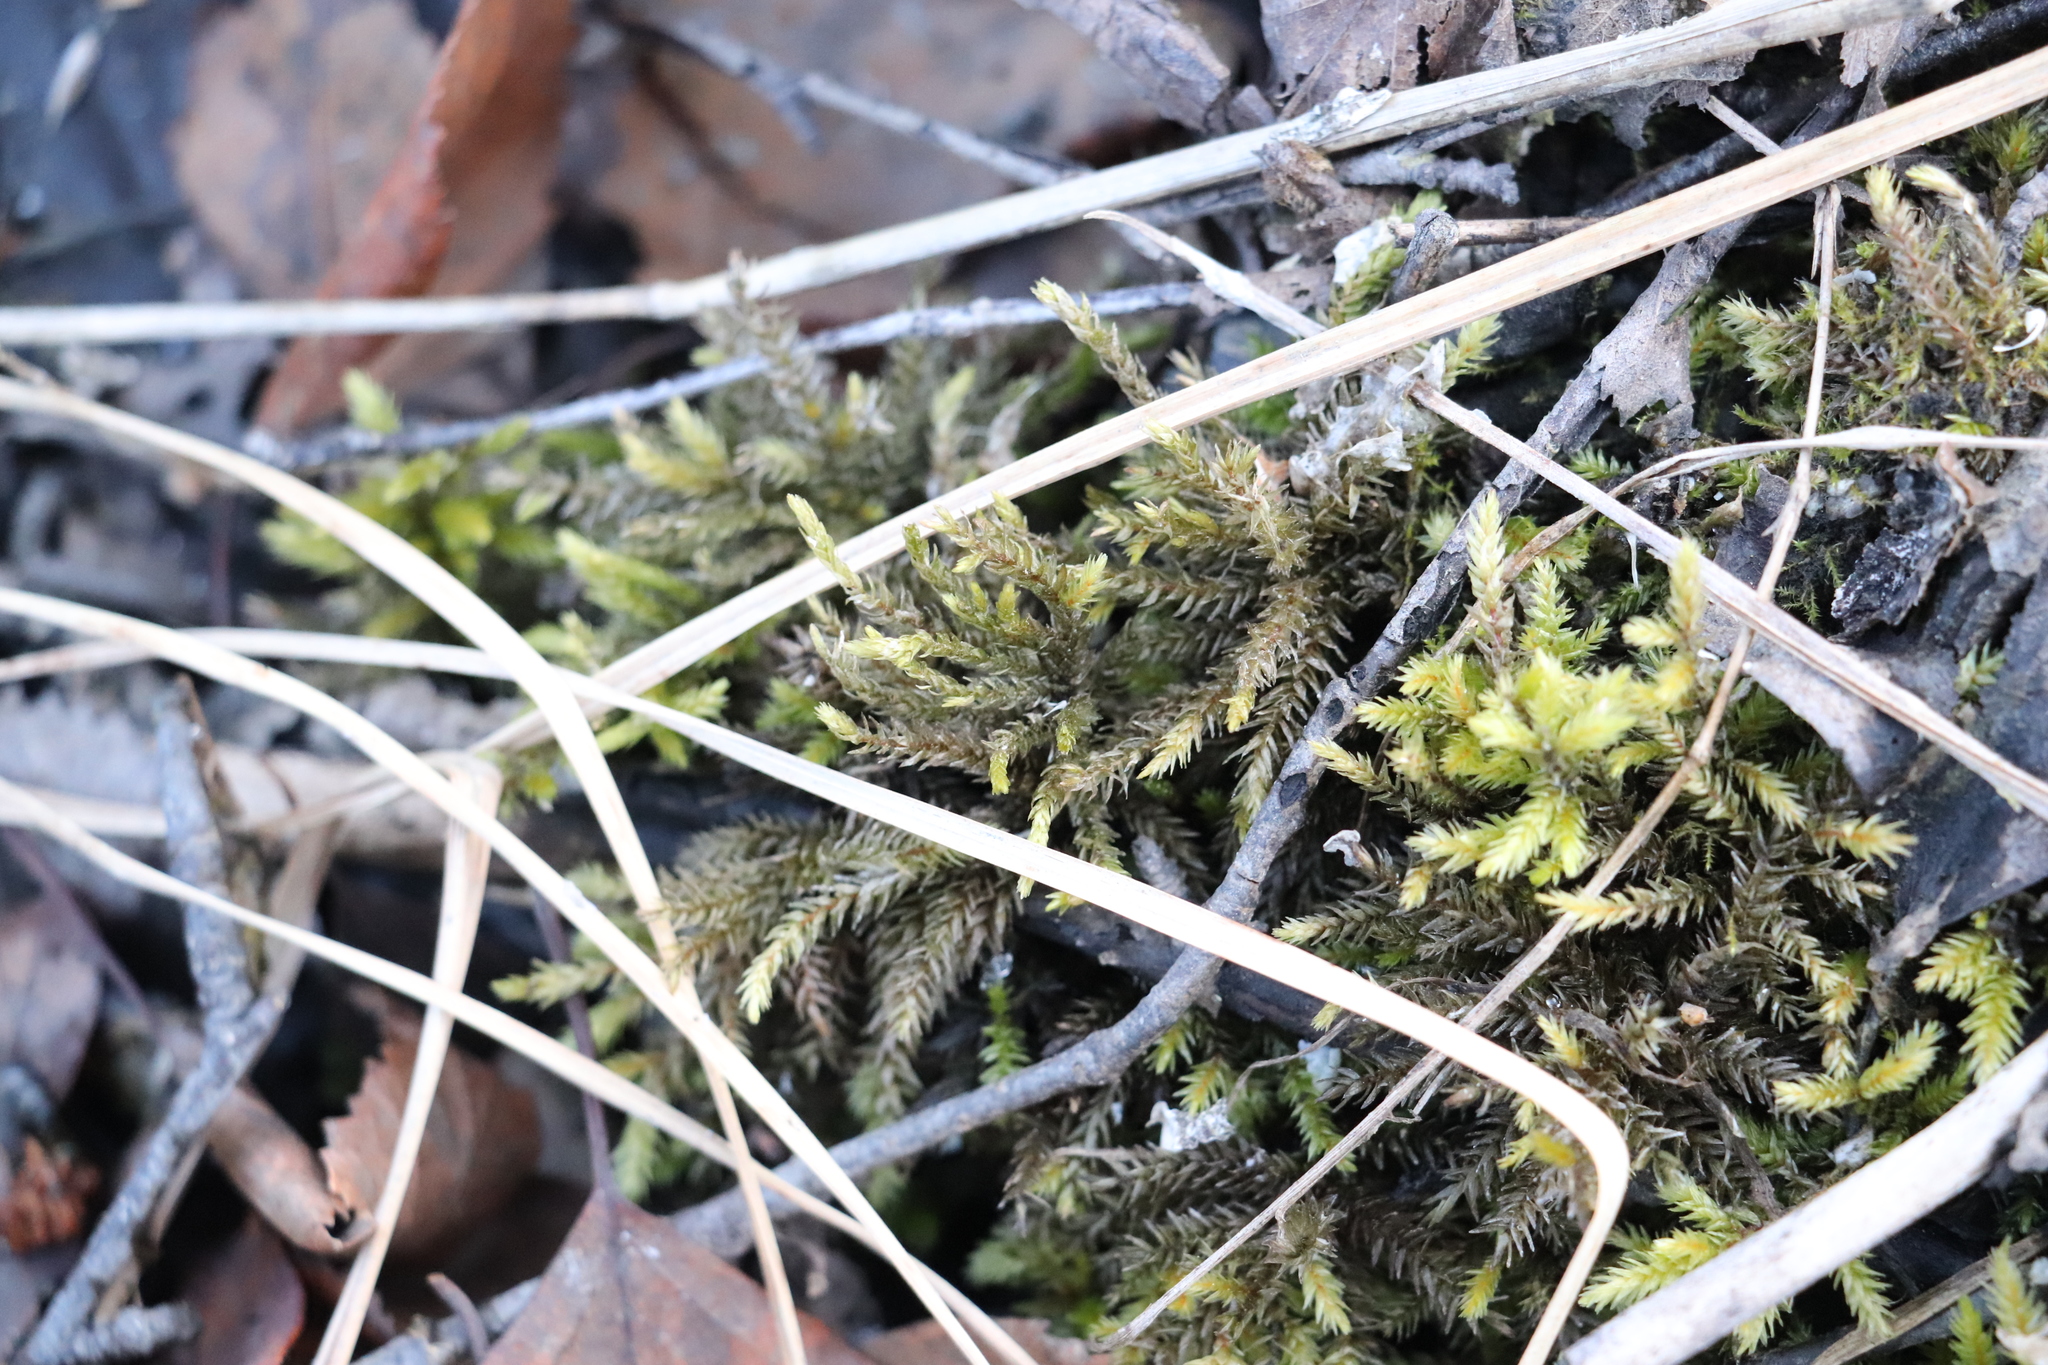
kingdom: Plantae
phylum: Bryophyta
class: Bryopsida
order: Hypnales
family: Climaciaceae
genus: Climacium
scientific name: Climacium dendroides
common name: Northern tree moss
